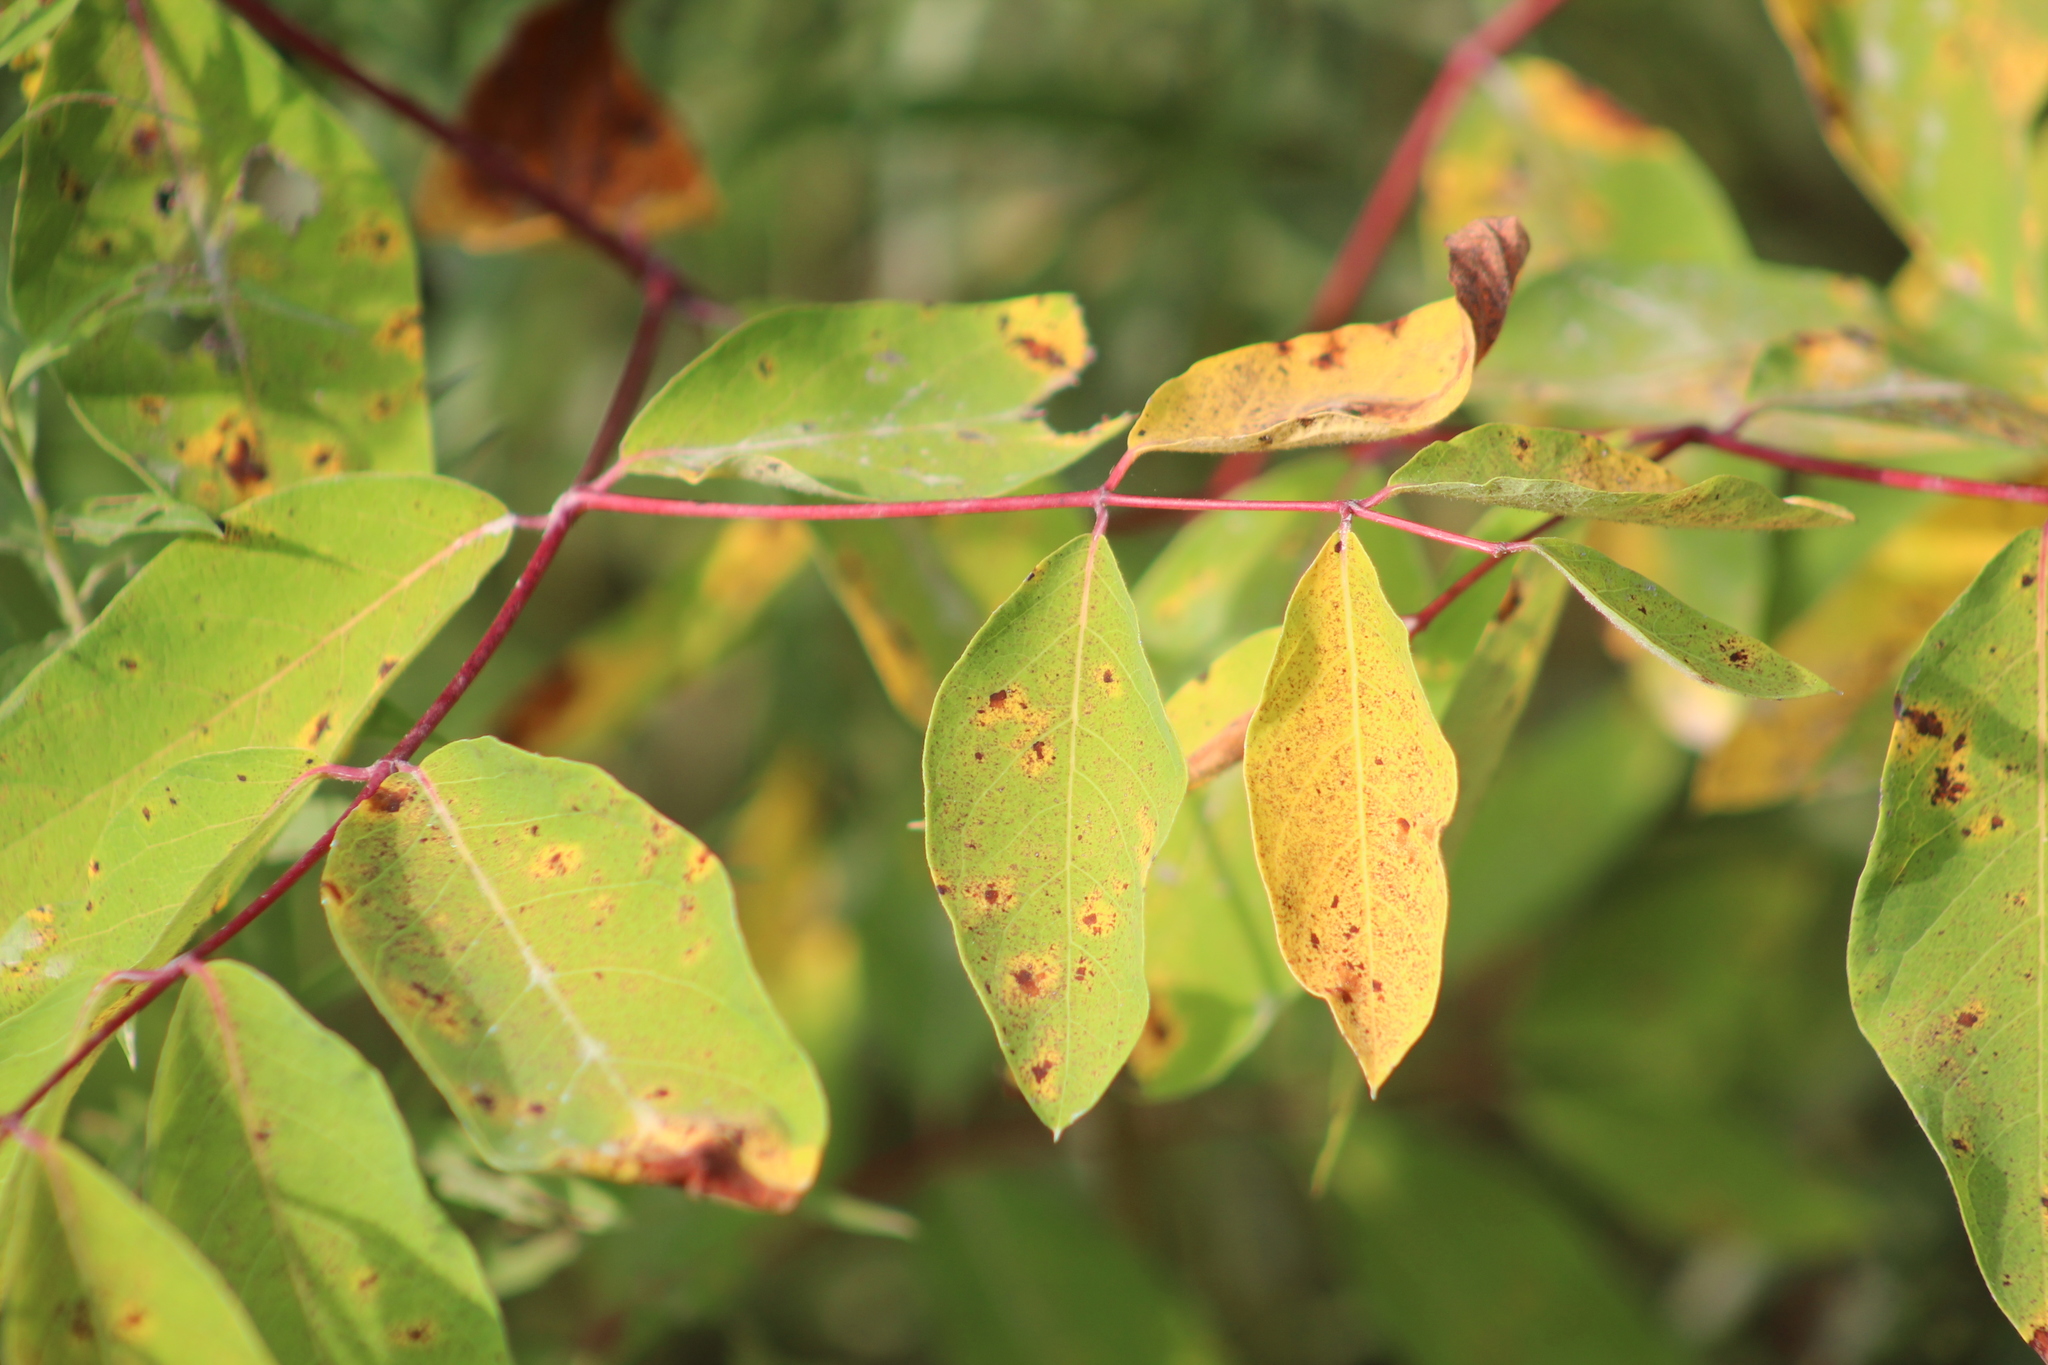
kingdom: Plantae
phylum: Tracheophyta
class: Magnoliopsida
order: Gentianales
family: Apocynaceae
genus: Apocynum
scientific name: Apocynum androsaemifolium
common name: Spreading dogbane
